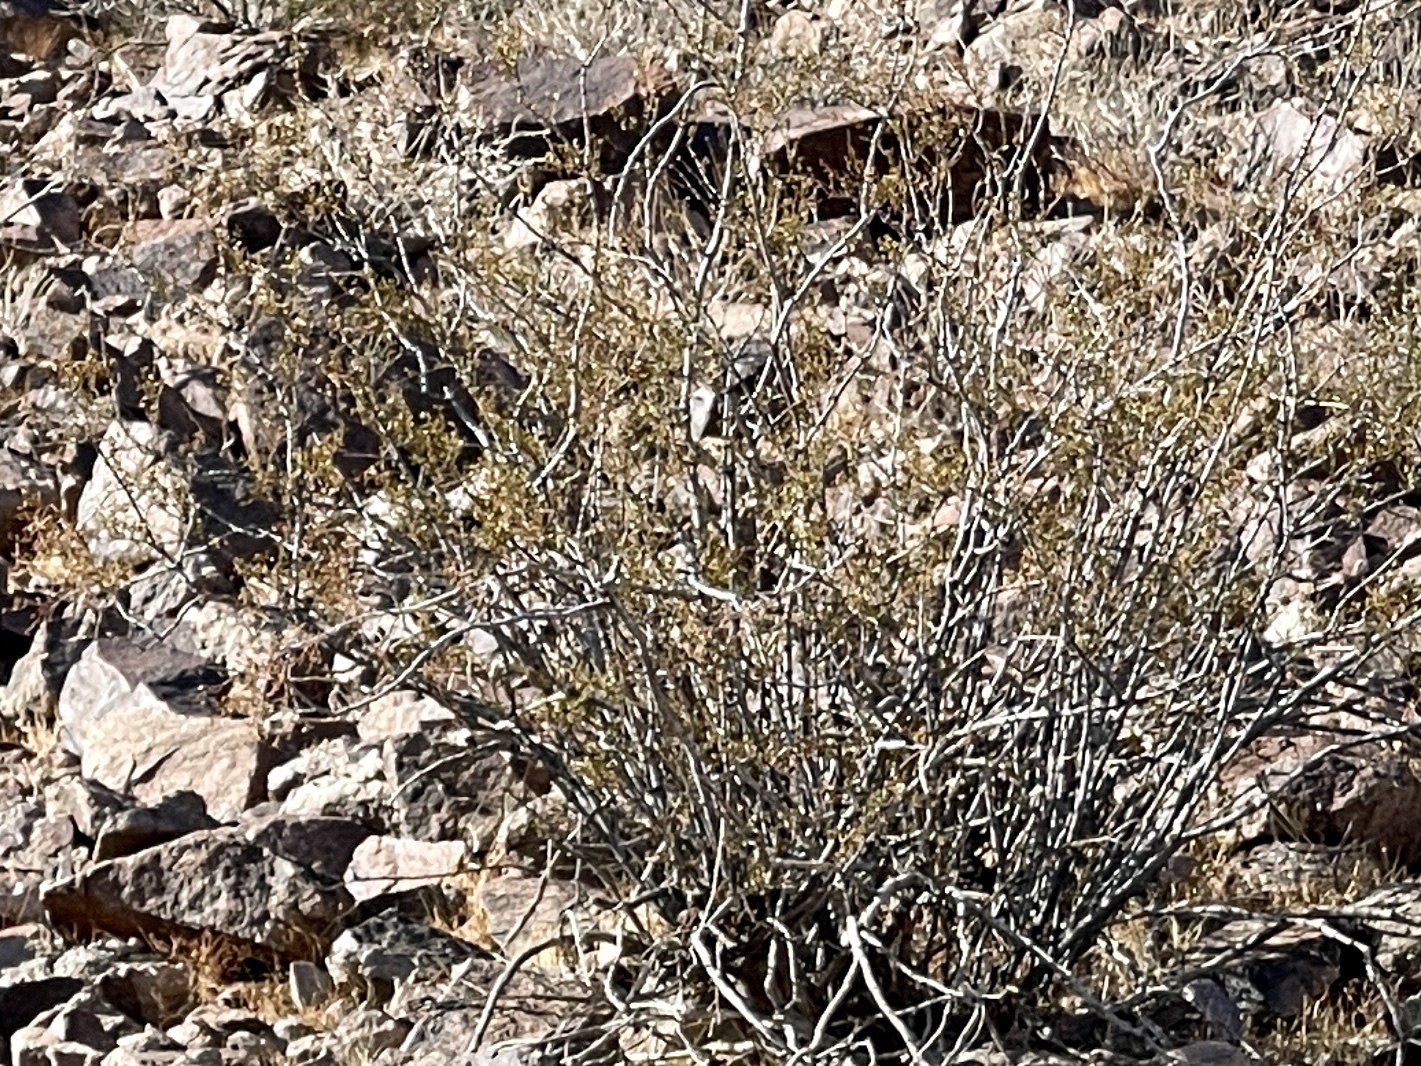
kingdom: Plantae
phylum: Tracheophyta
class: Magnoliopsida
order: Zygophyllales
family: Zygophyllaceae
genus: Larrea
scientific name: Larrea tridentata
